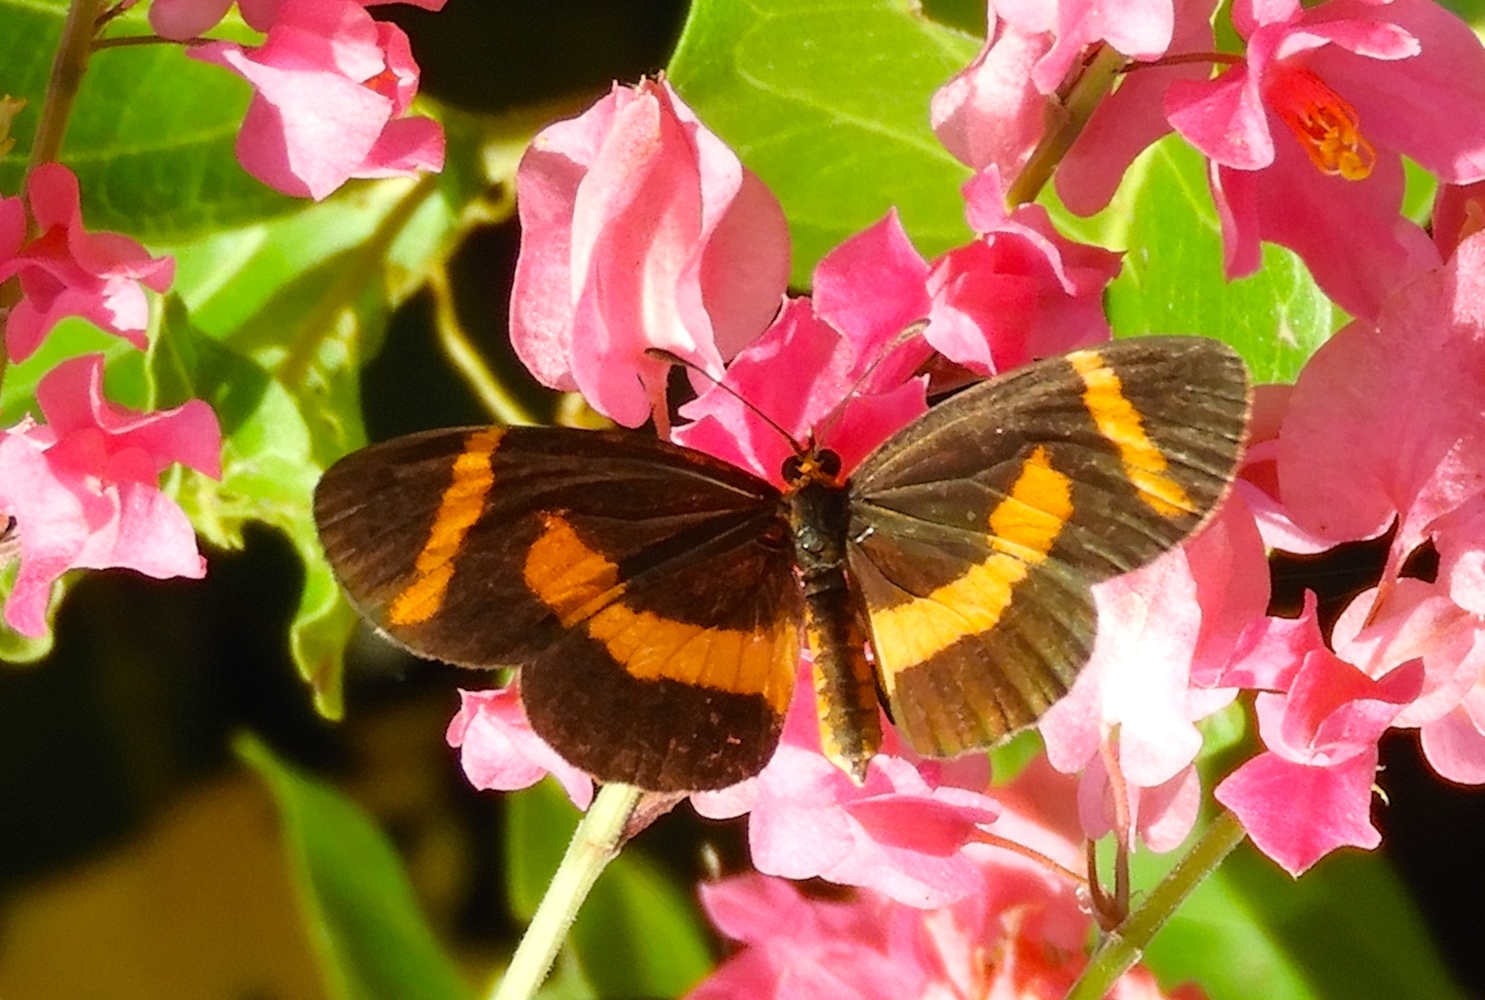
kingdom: Animalia
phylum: Arthropoda
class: Insecta
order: Lepidoptera
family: Nymphalidae
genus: Microtia
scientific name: Microtia elva
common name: Elf
